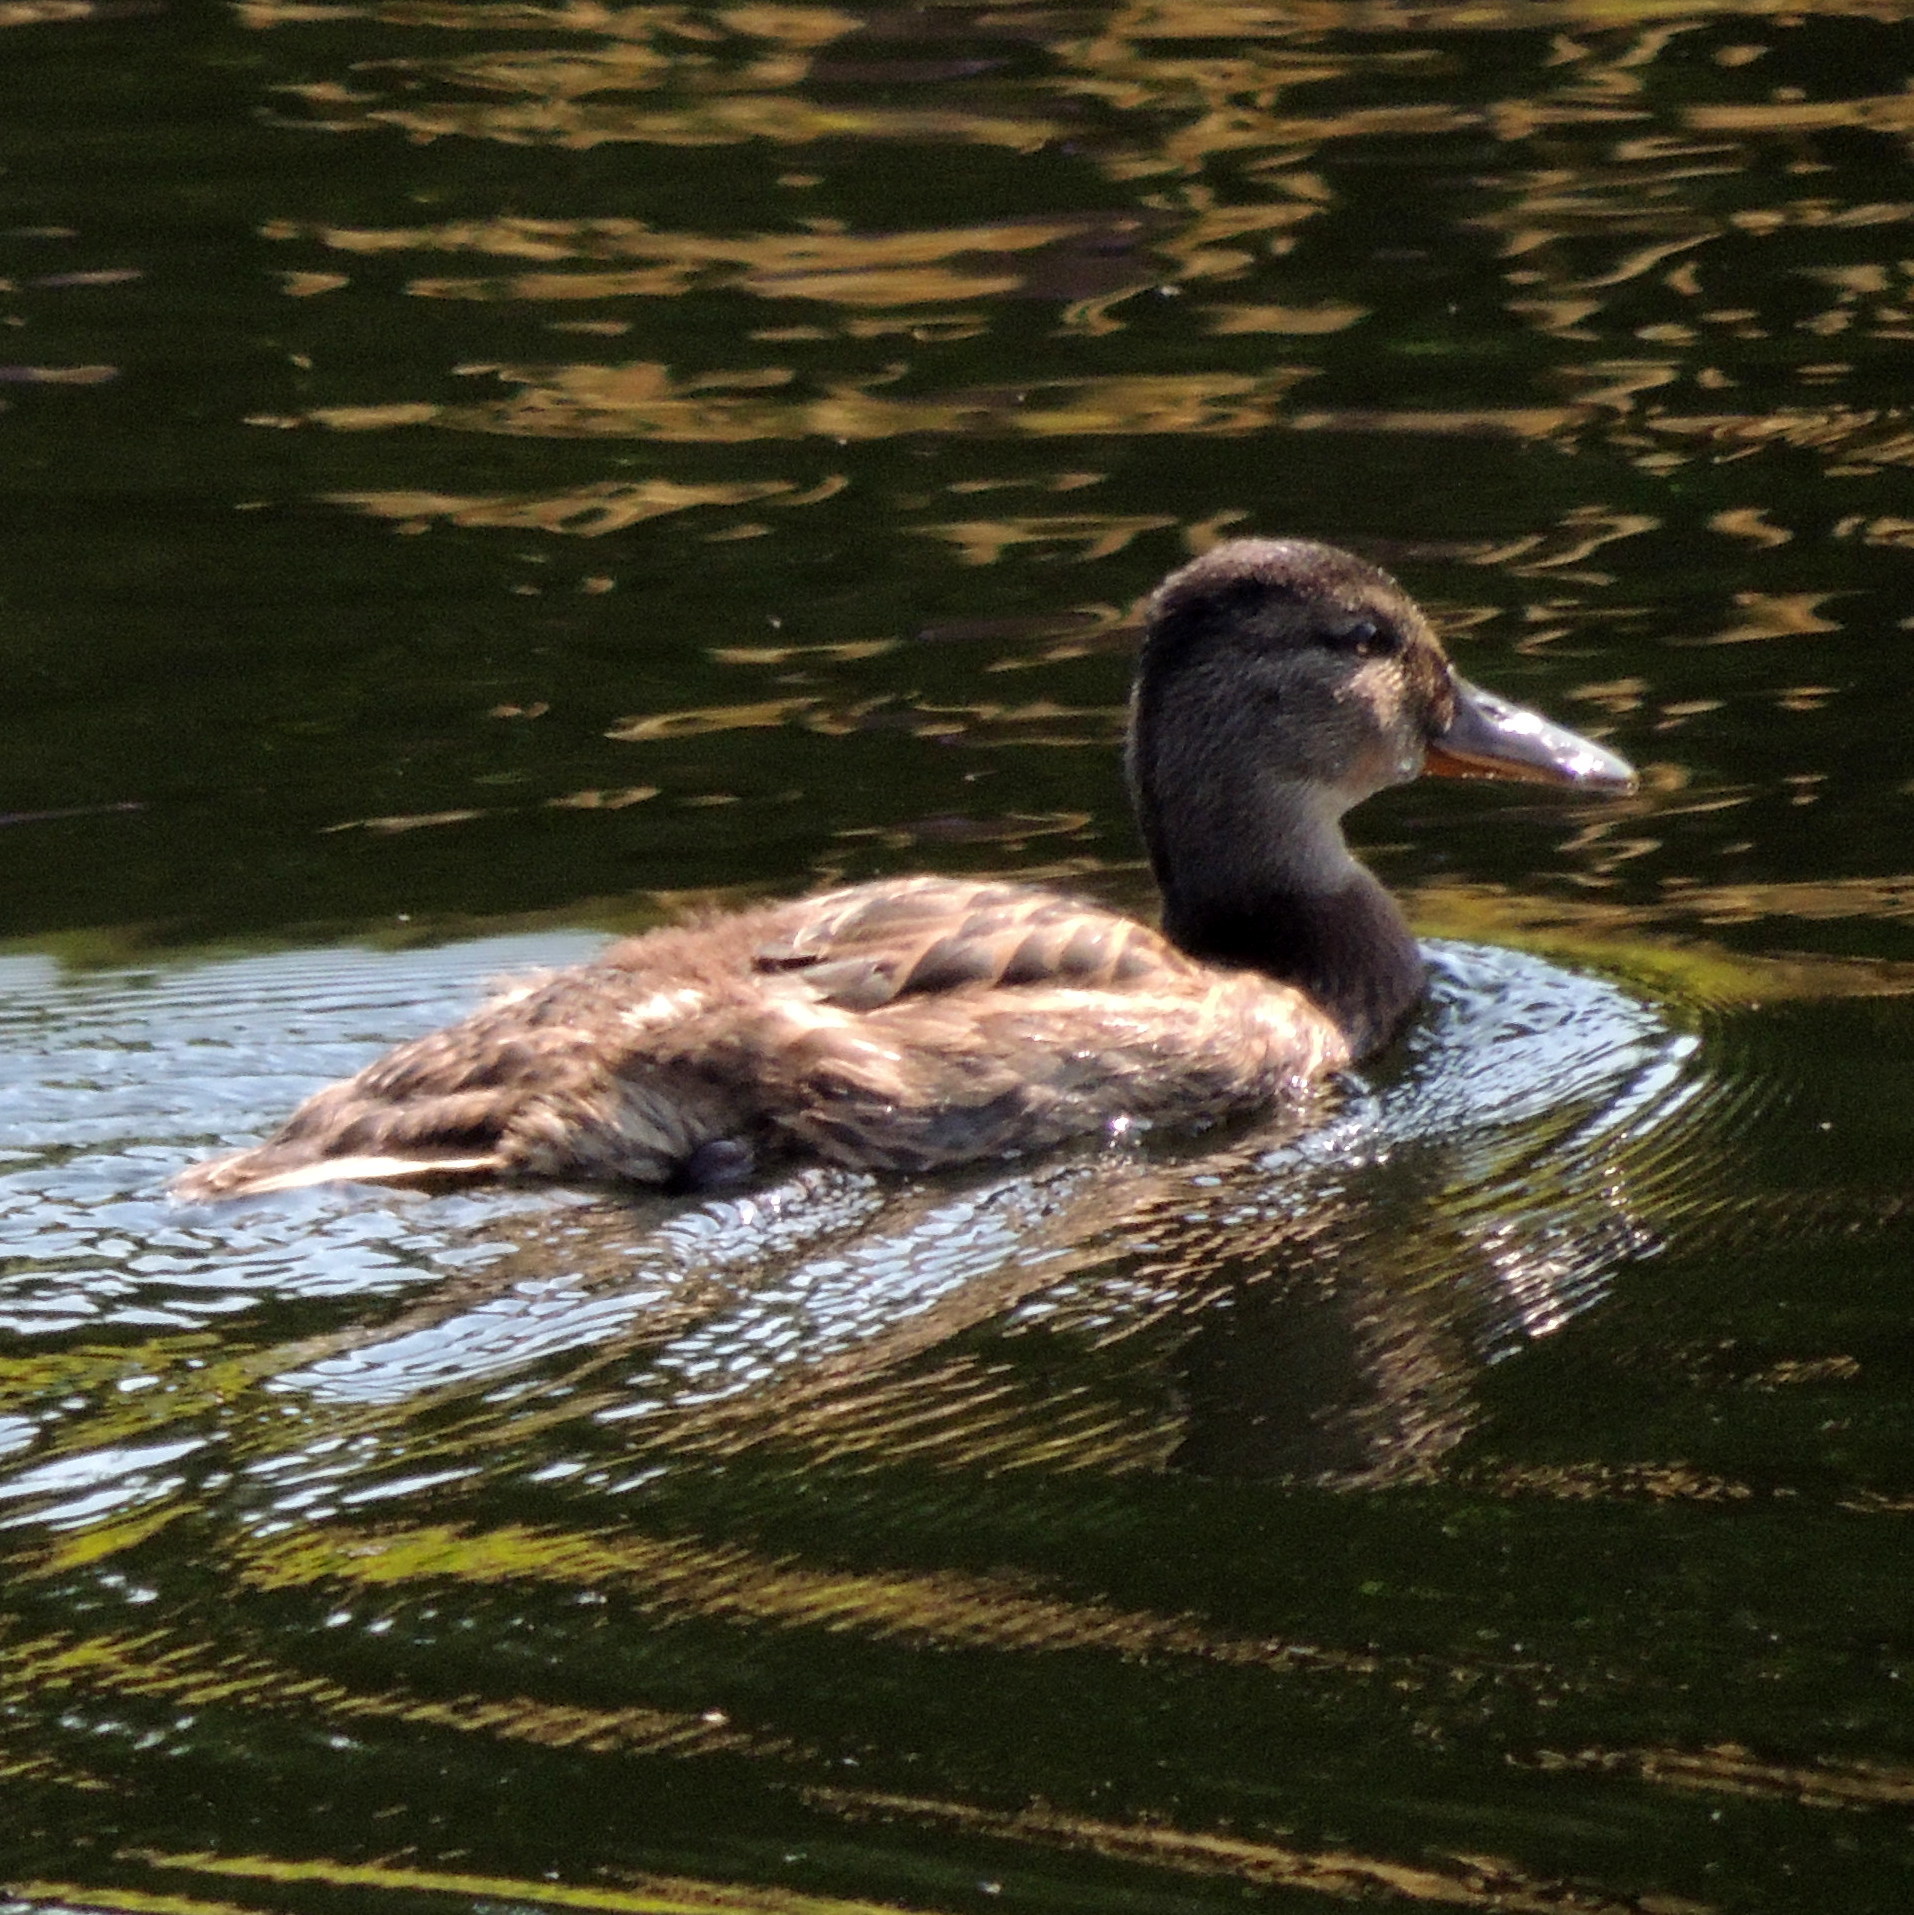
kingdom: Animalia
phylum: Chordata
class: Aves
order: Anseriformes
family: Anatidae
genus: Anas
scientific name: Anas platyrhynchos
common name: Mallard
